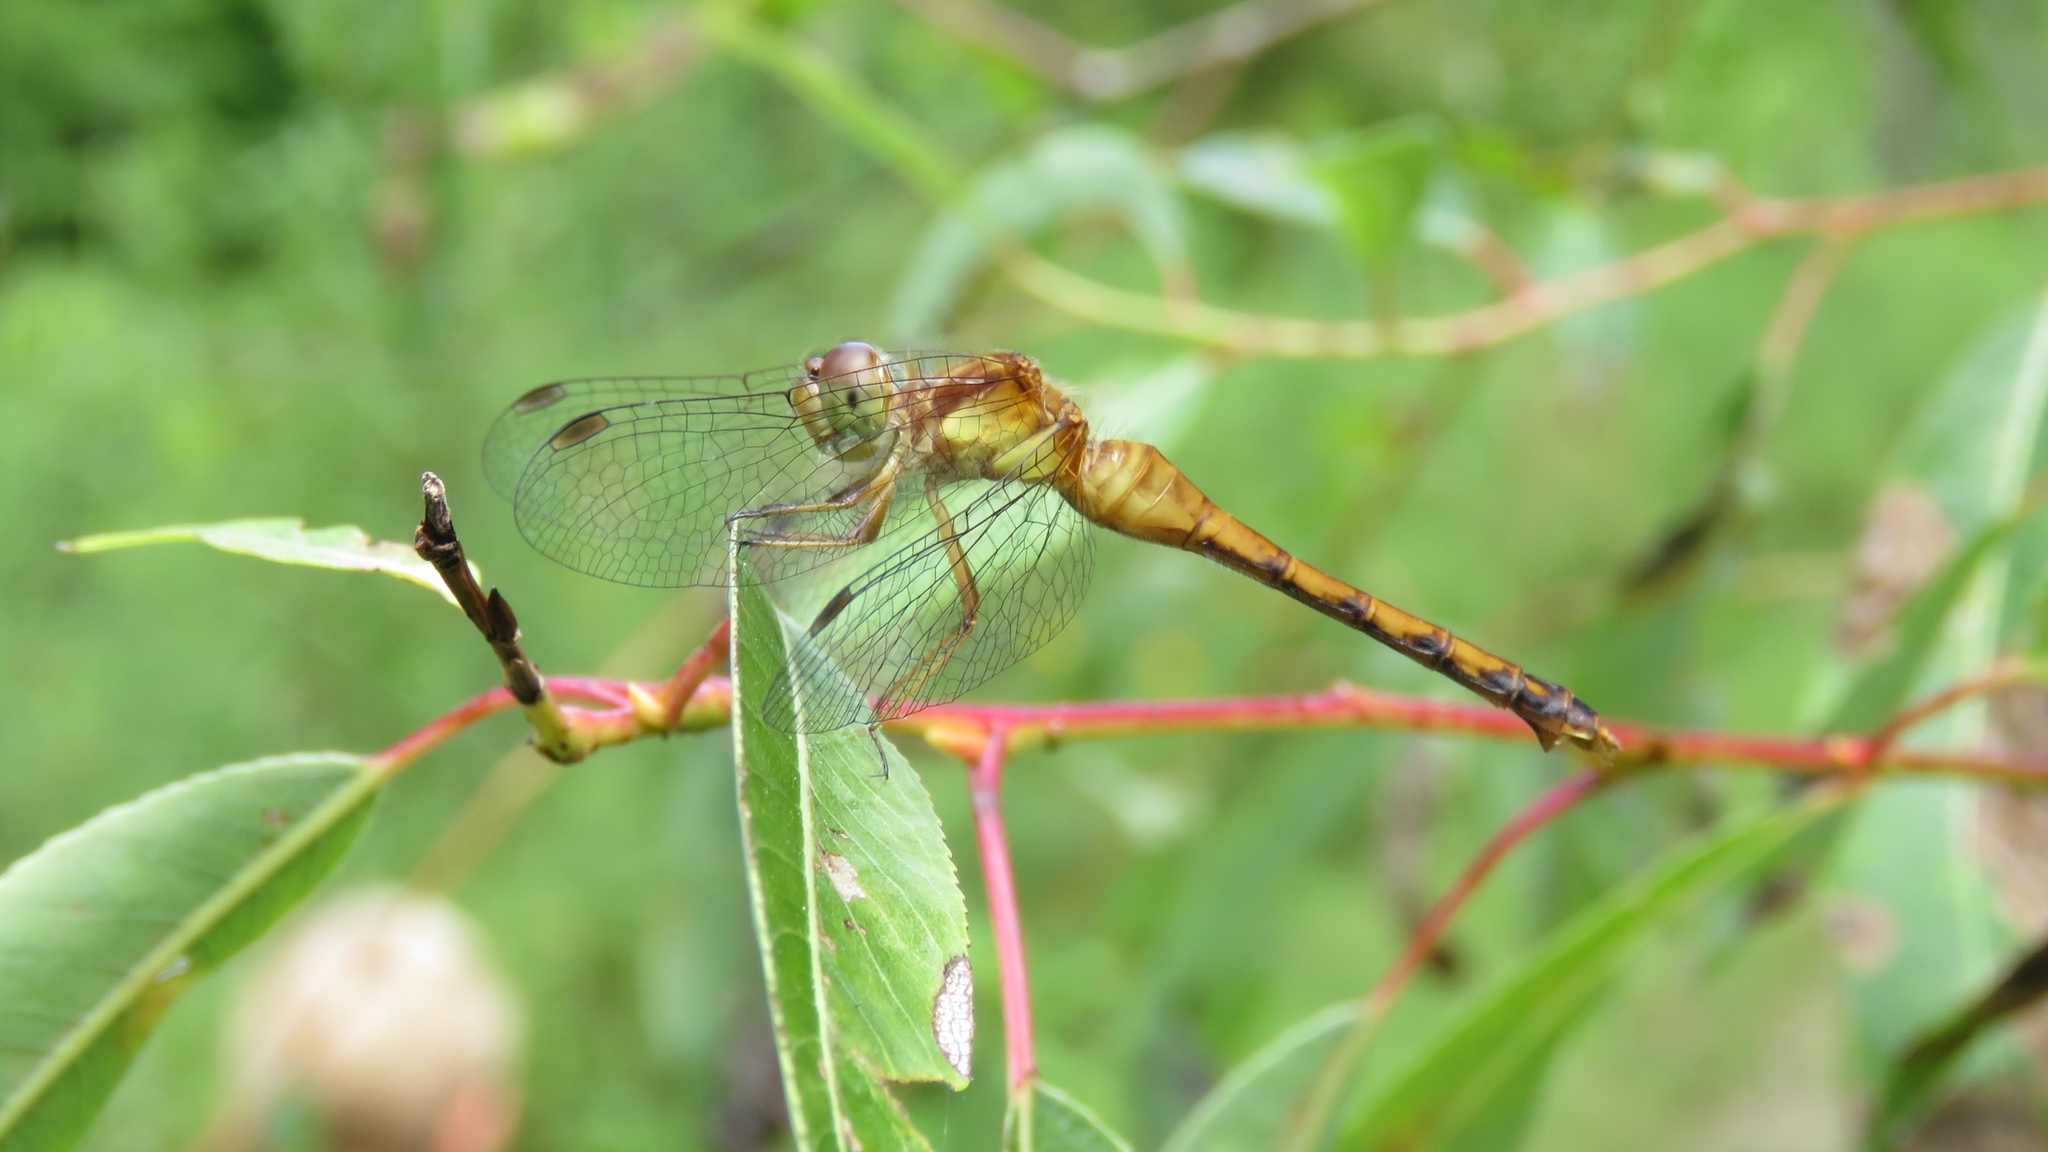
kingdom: Animalia
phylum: Arthropoda
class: Insecta
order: Odonata
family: Libellulidae
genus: Sympetrum
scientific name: Sympetrum vicinum
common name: Autumn meadowhawk
